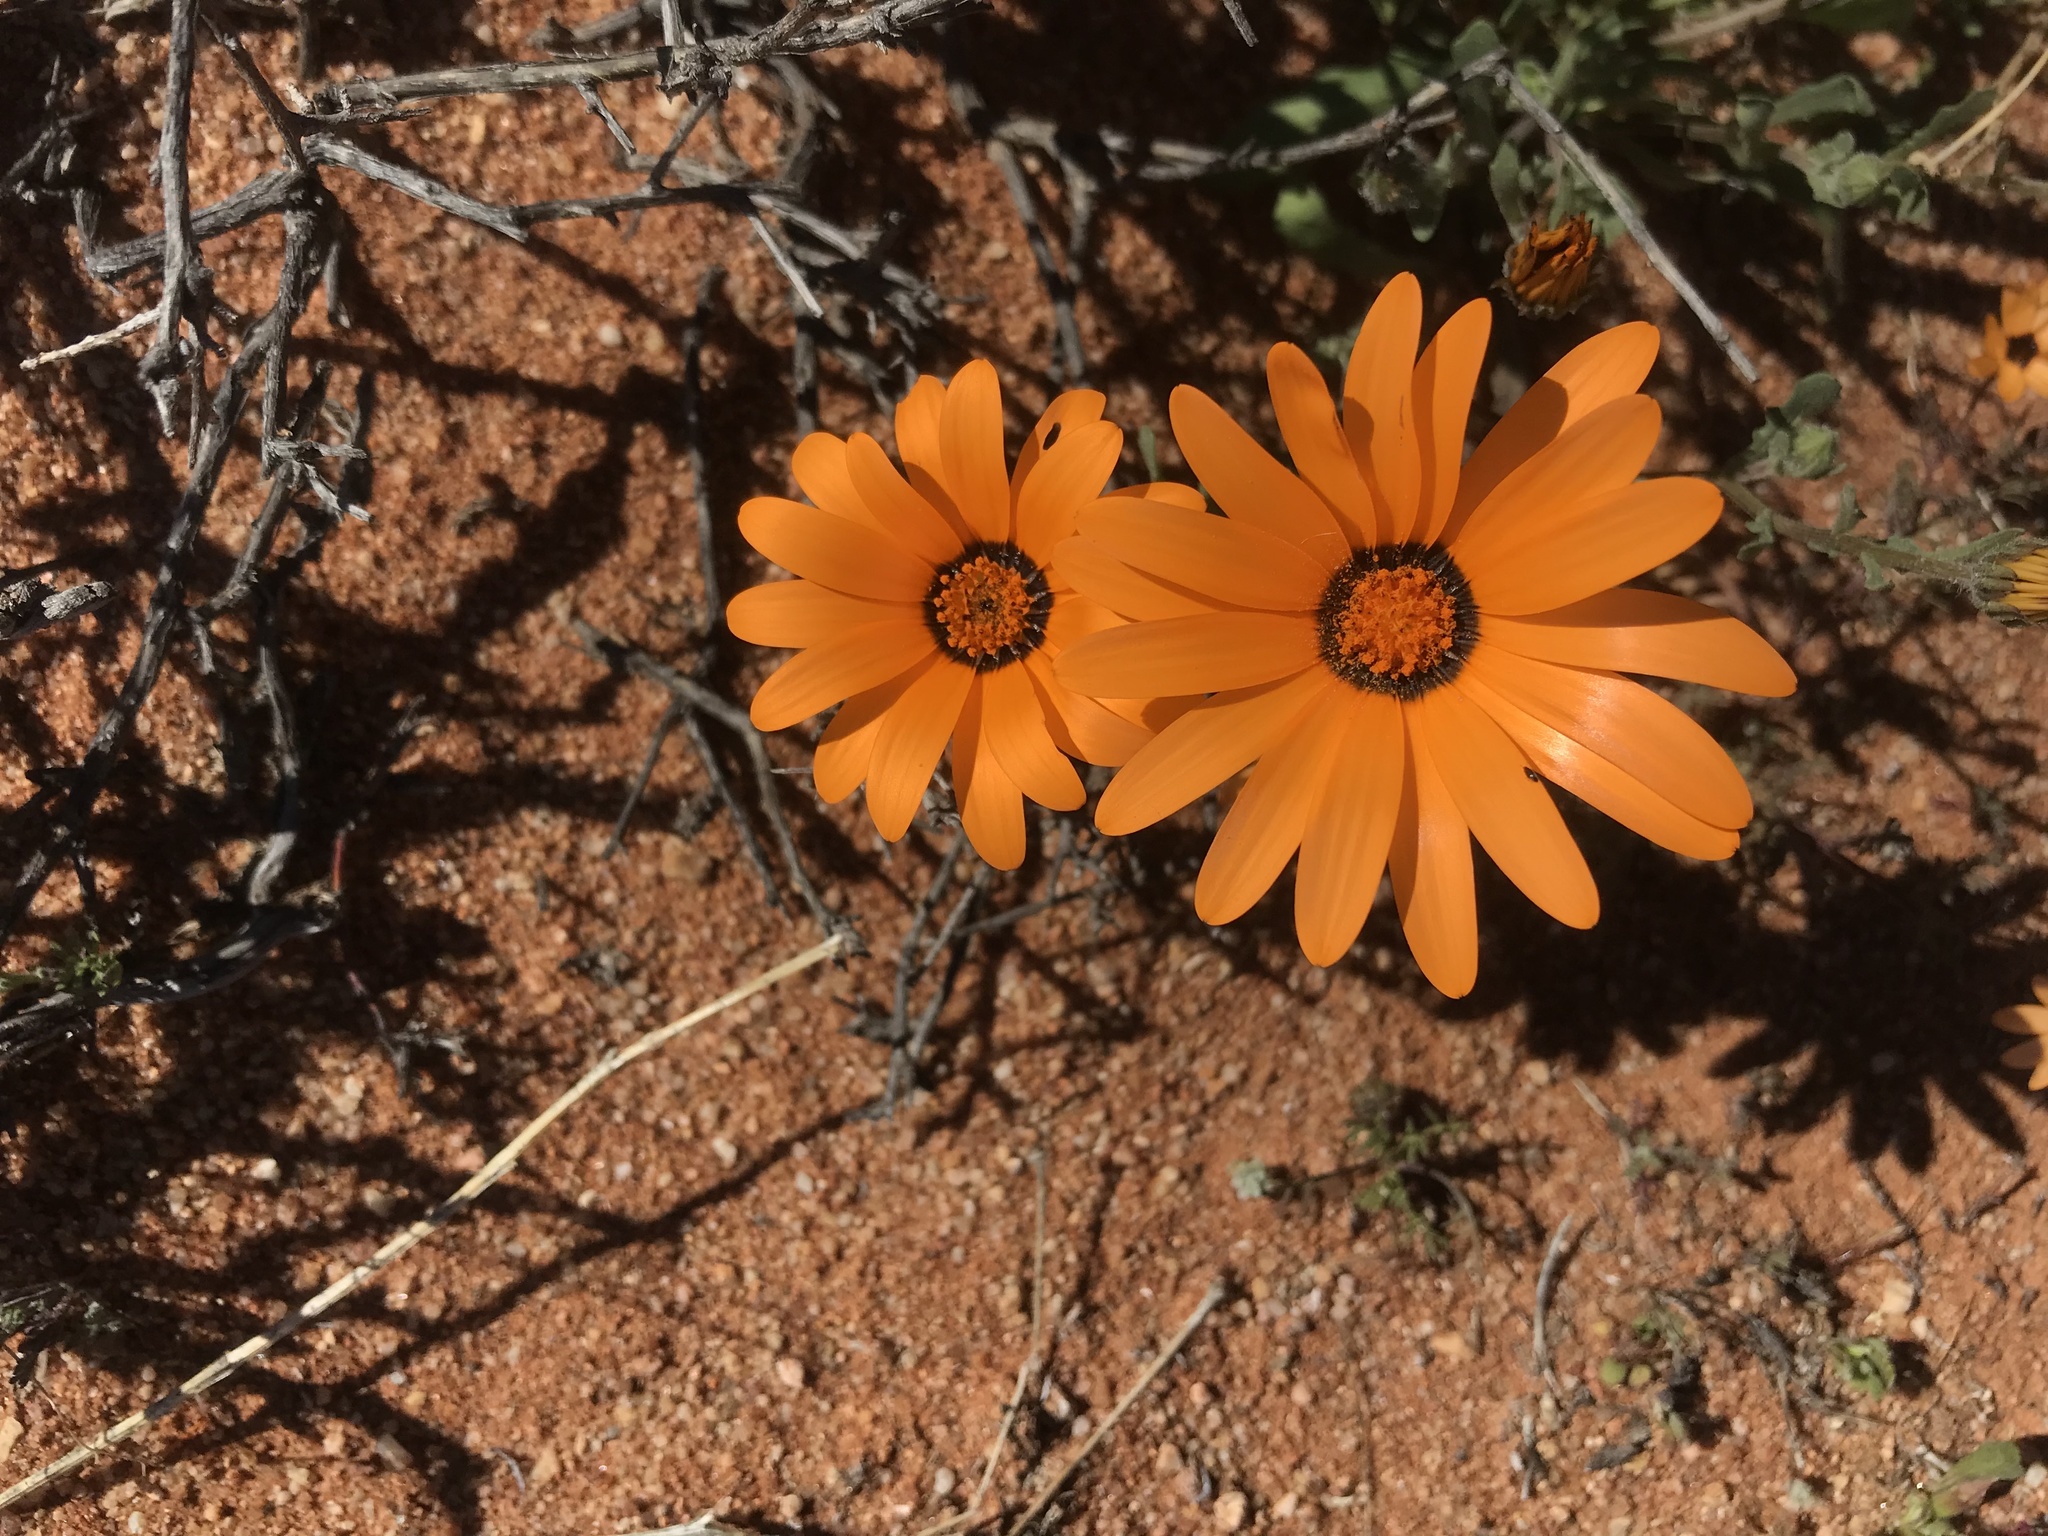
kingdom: Plantae
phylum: Tracheophyta
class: Magnoliopsida
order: Asterales
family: Asteraceae
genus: Dimorphotheca
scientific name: Dimorphotheca sinuata
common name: Glandular cape marigold
